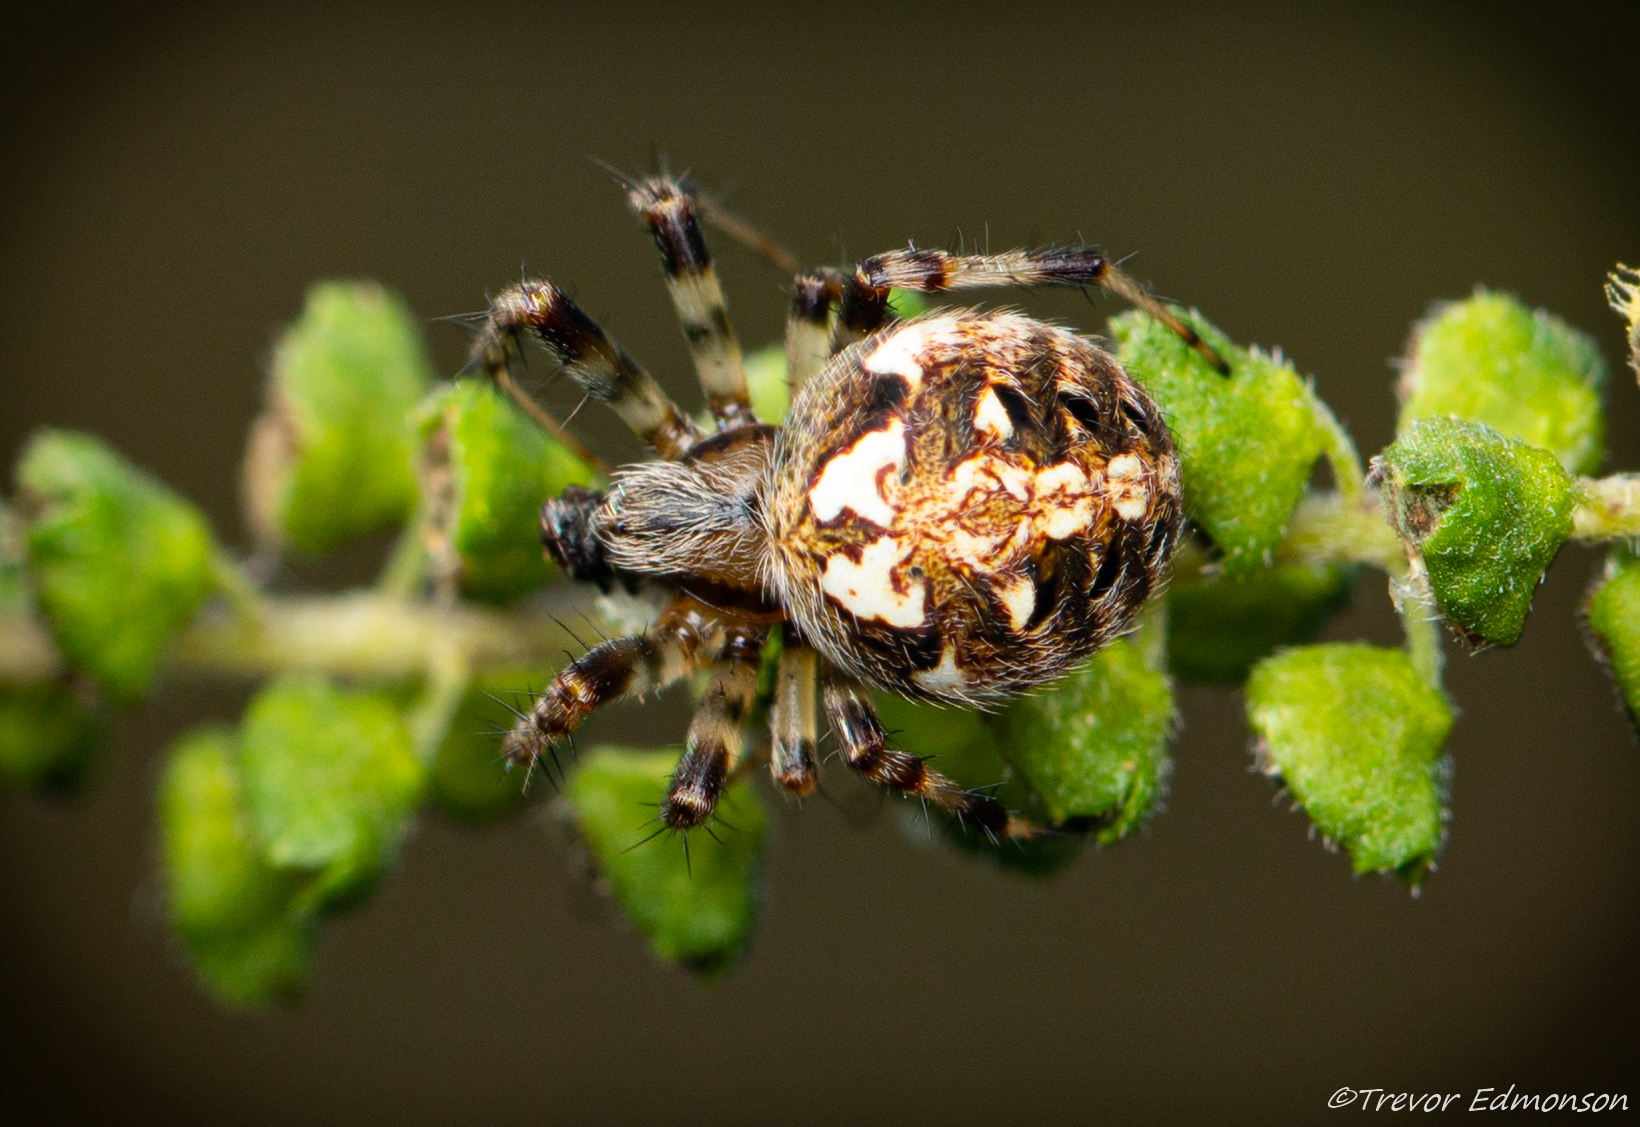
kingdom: Animalia
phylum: Arthropoda
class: Arachnida
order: Araneae
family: Araneidae
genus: Neoscona
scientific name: Neoscona arabesca
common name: Orb weavers
